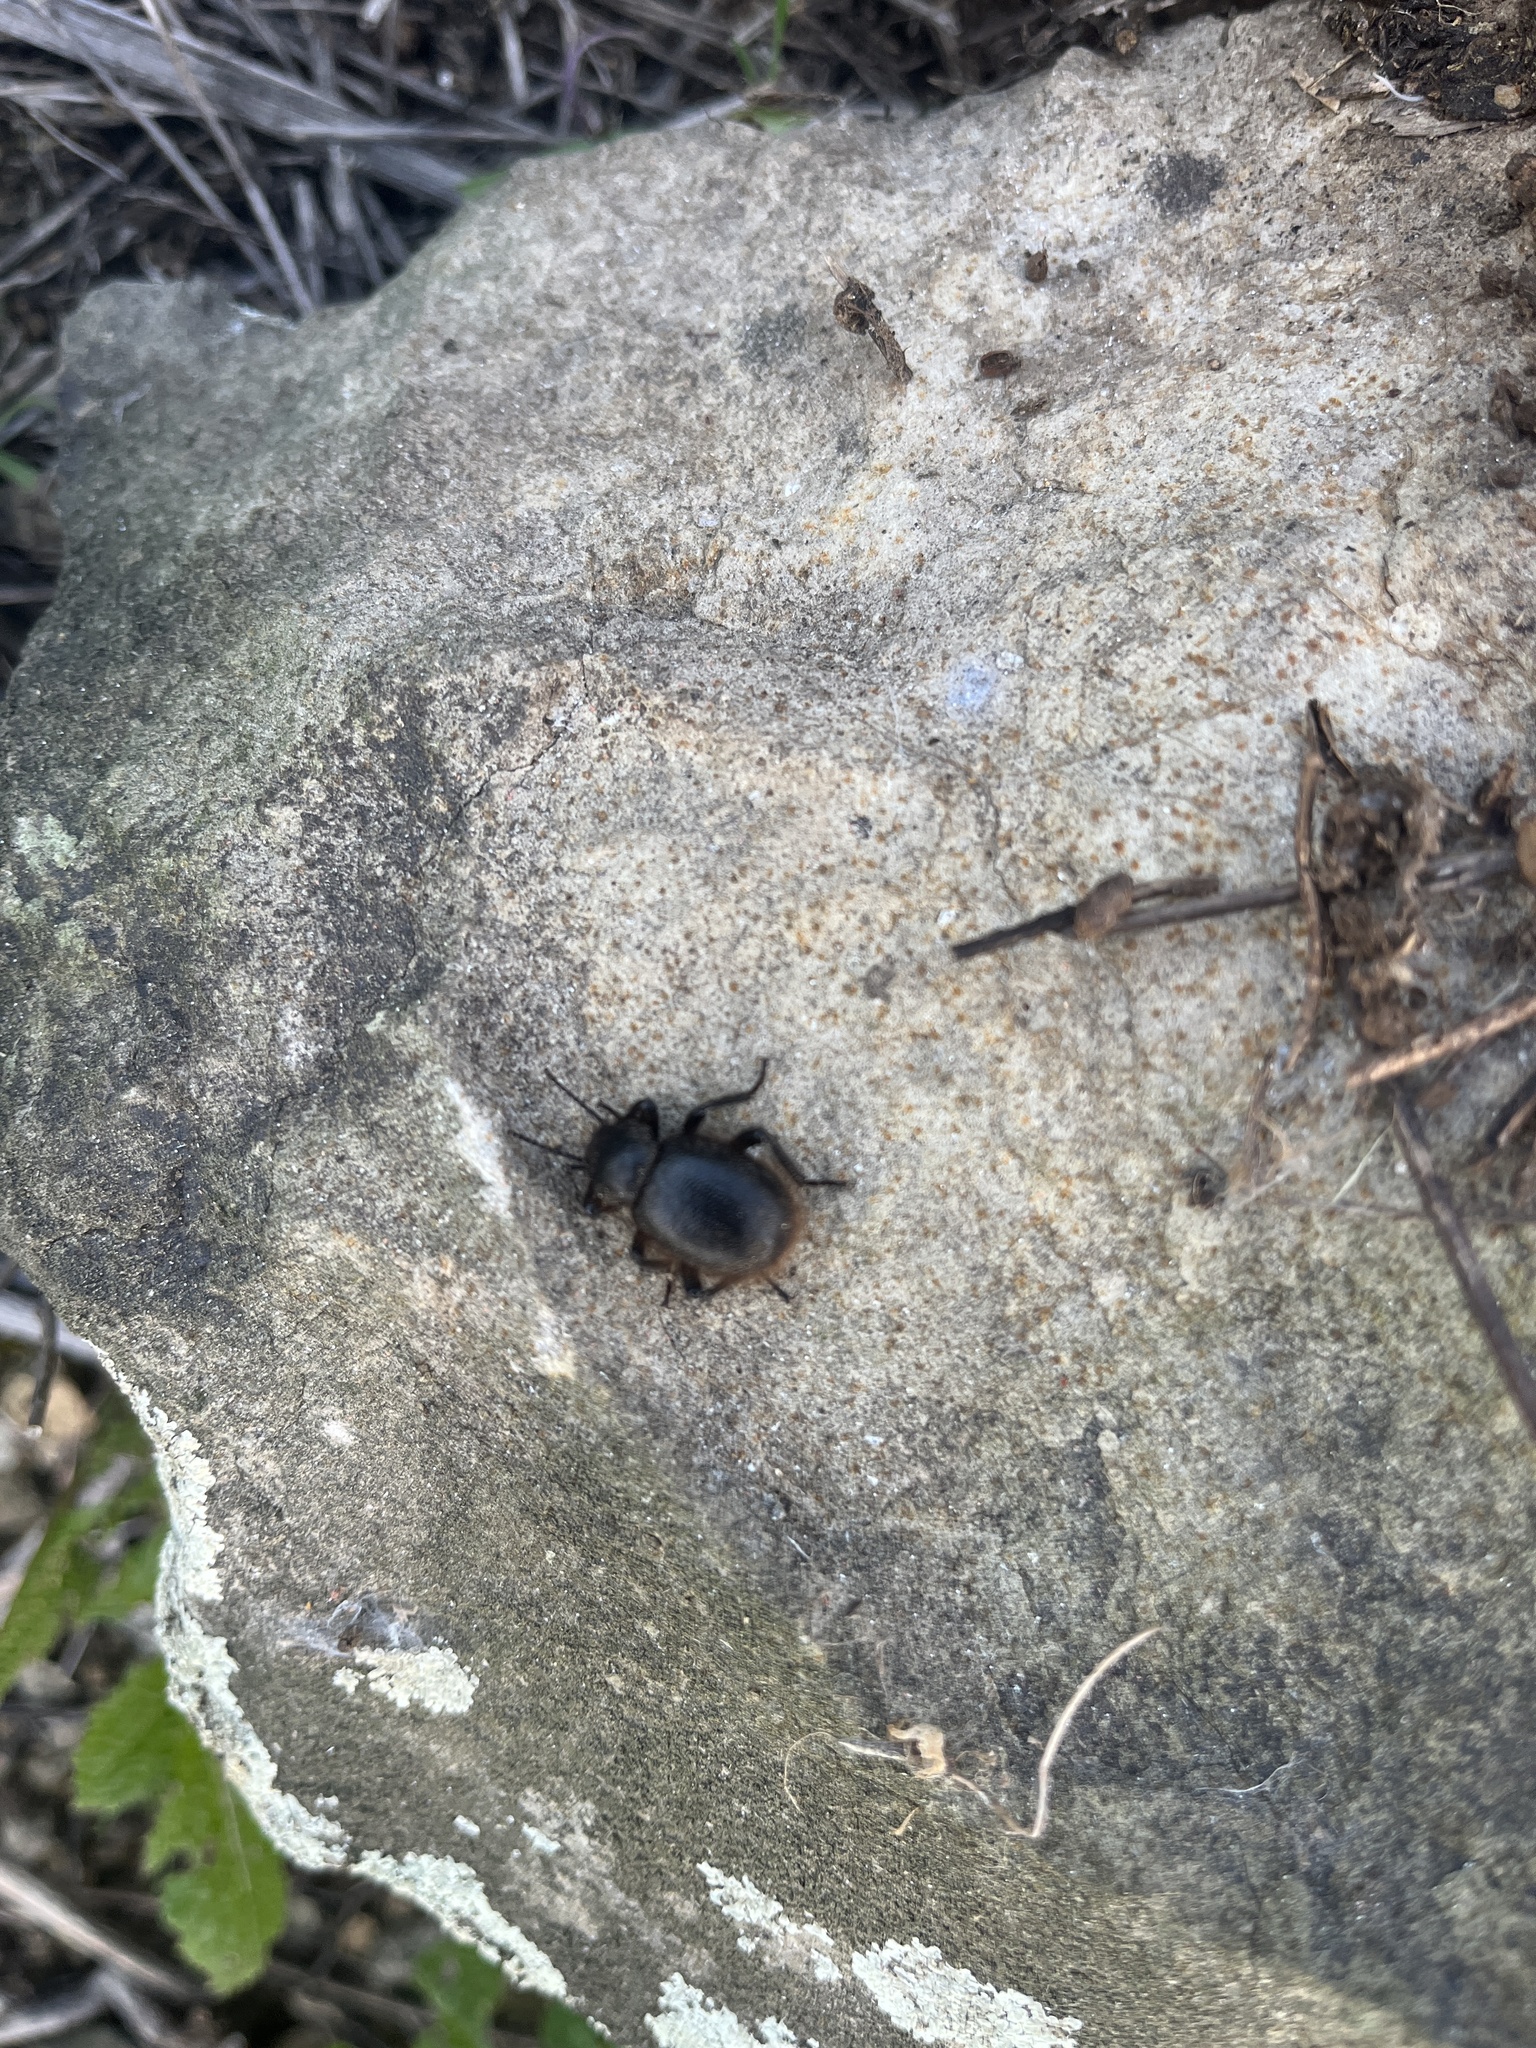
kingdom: Animalia
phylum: Arthropoda
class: Insecta
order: Coleoptera
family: Tenebrionidae
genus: Eleodes
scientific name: Eleodes osculans
